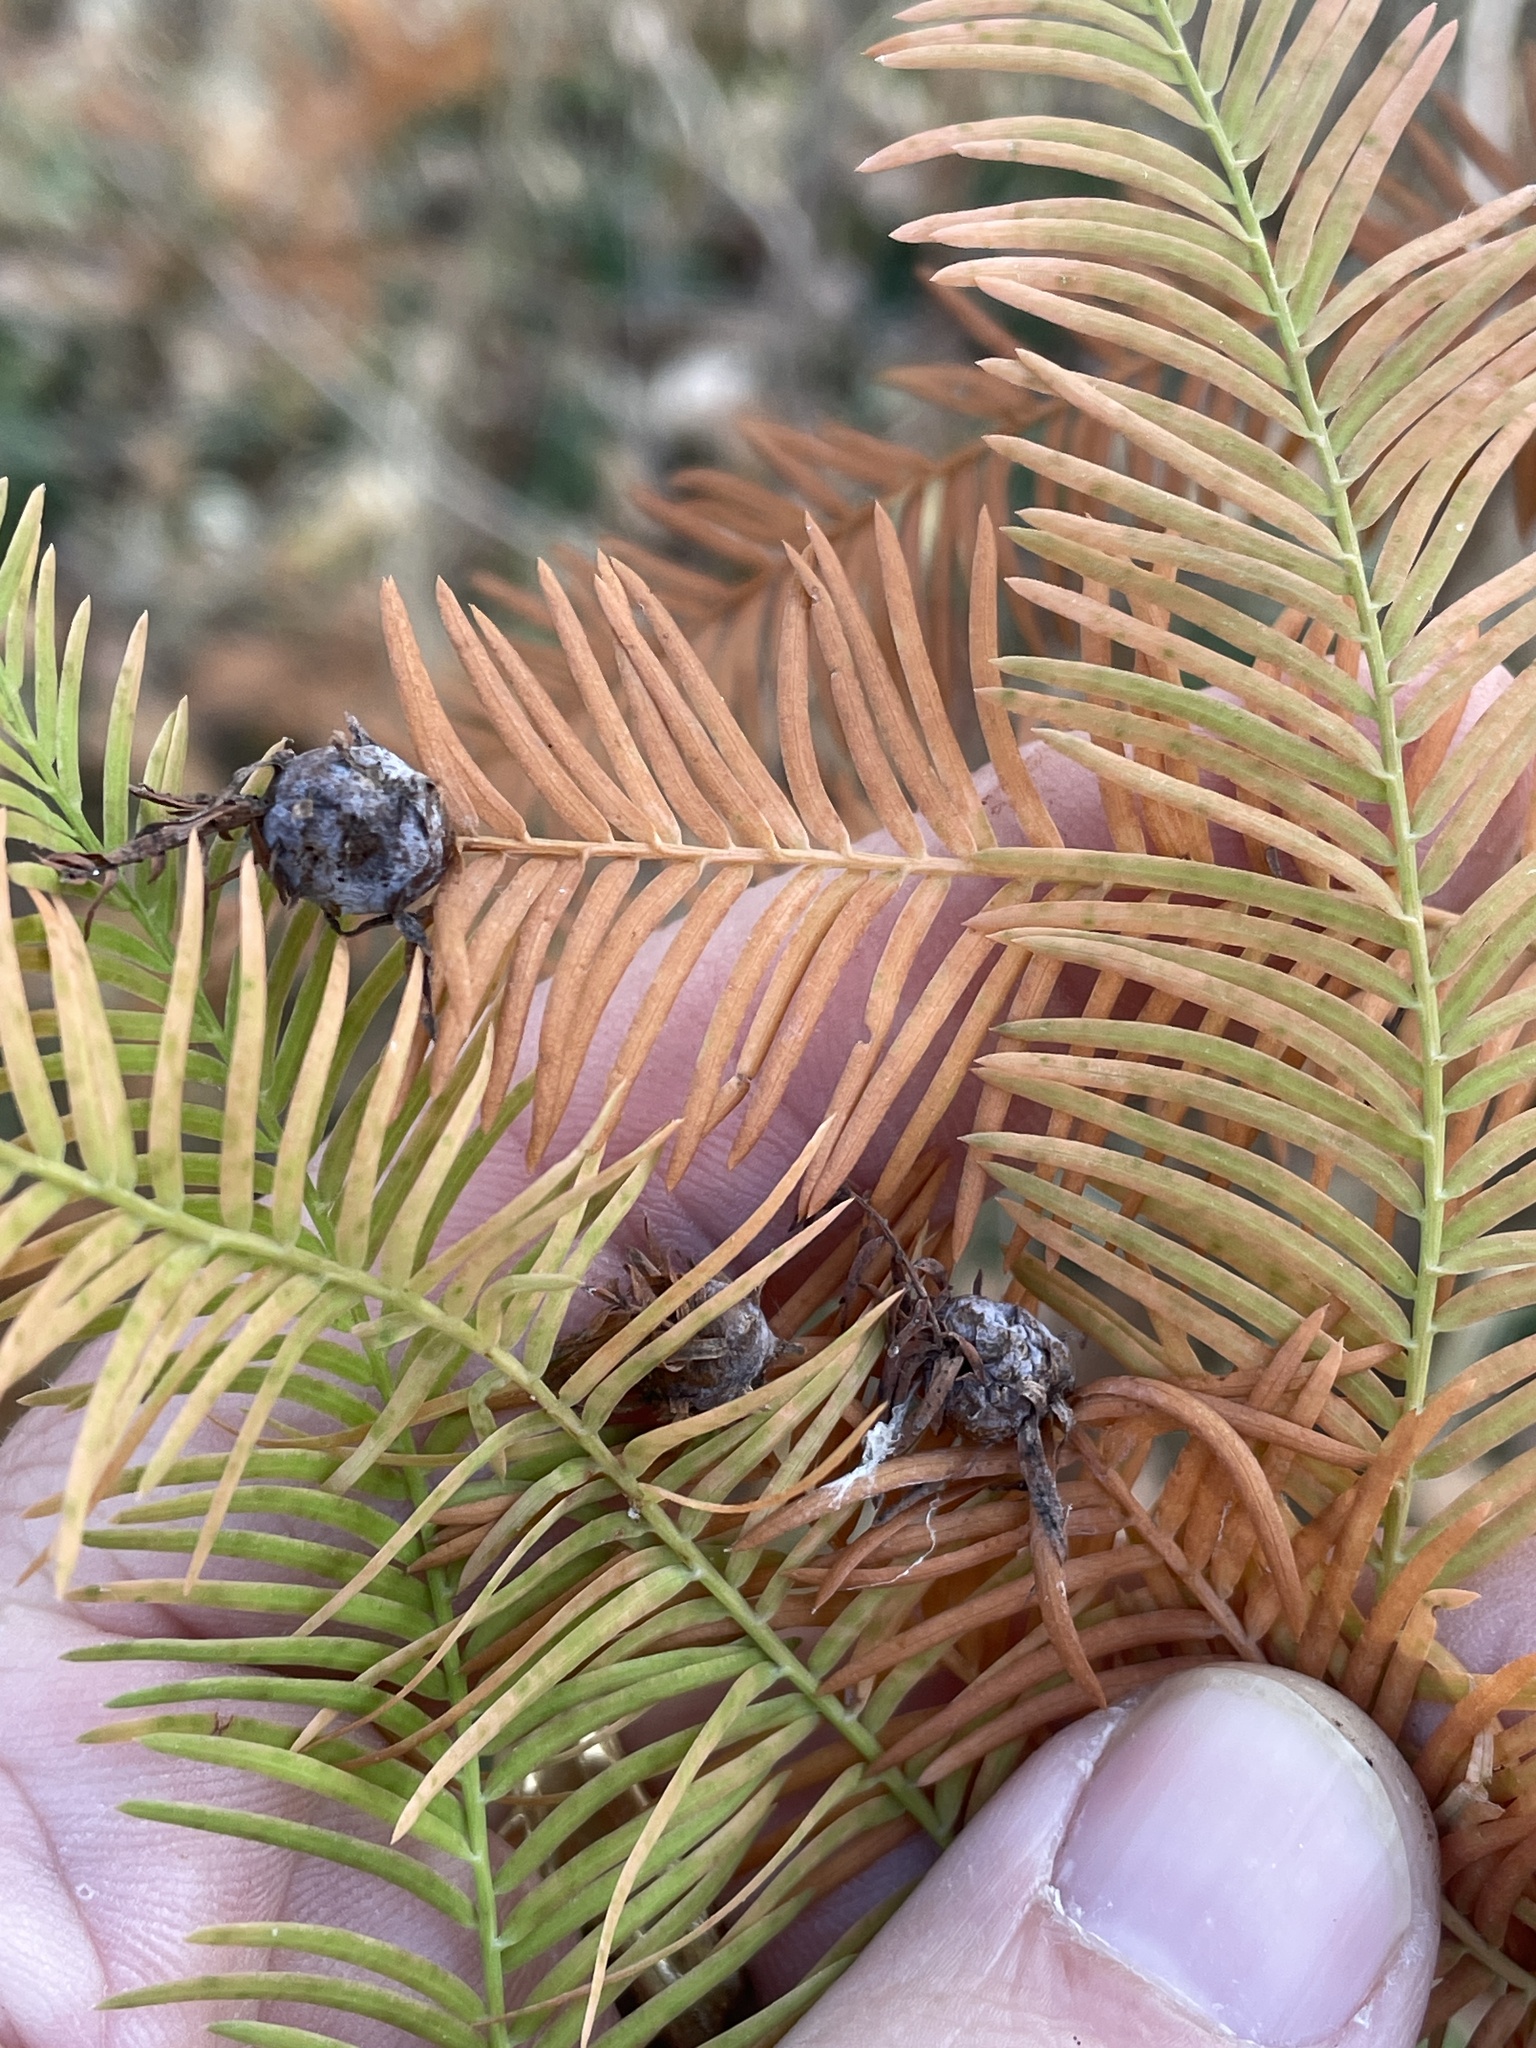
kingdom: Animalia
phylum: Arthropoda
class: Insecta
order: Diptera
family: Cecidomyiidae
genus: Taxodiomyia
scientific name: Taxodiomyia cupressiananassa
